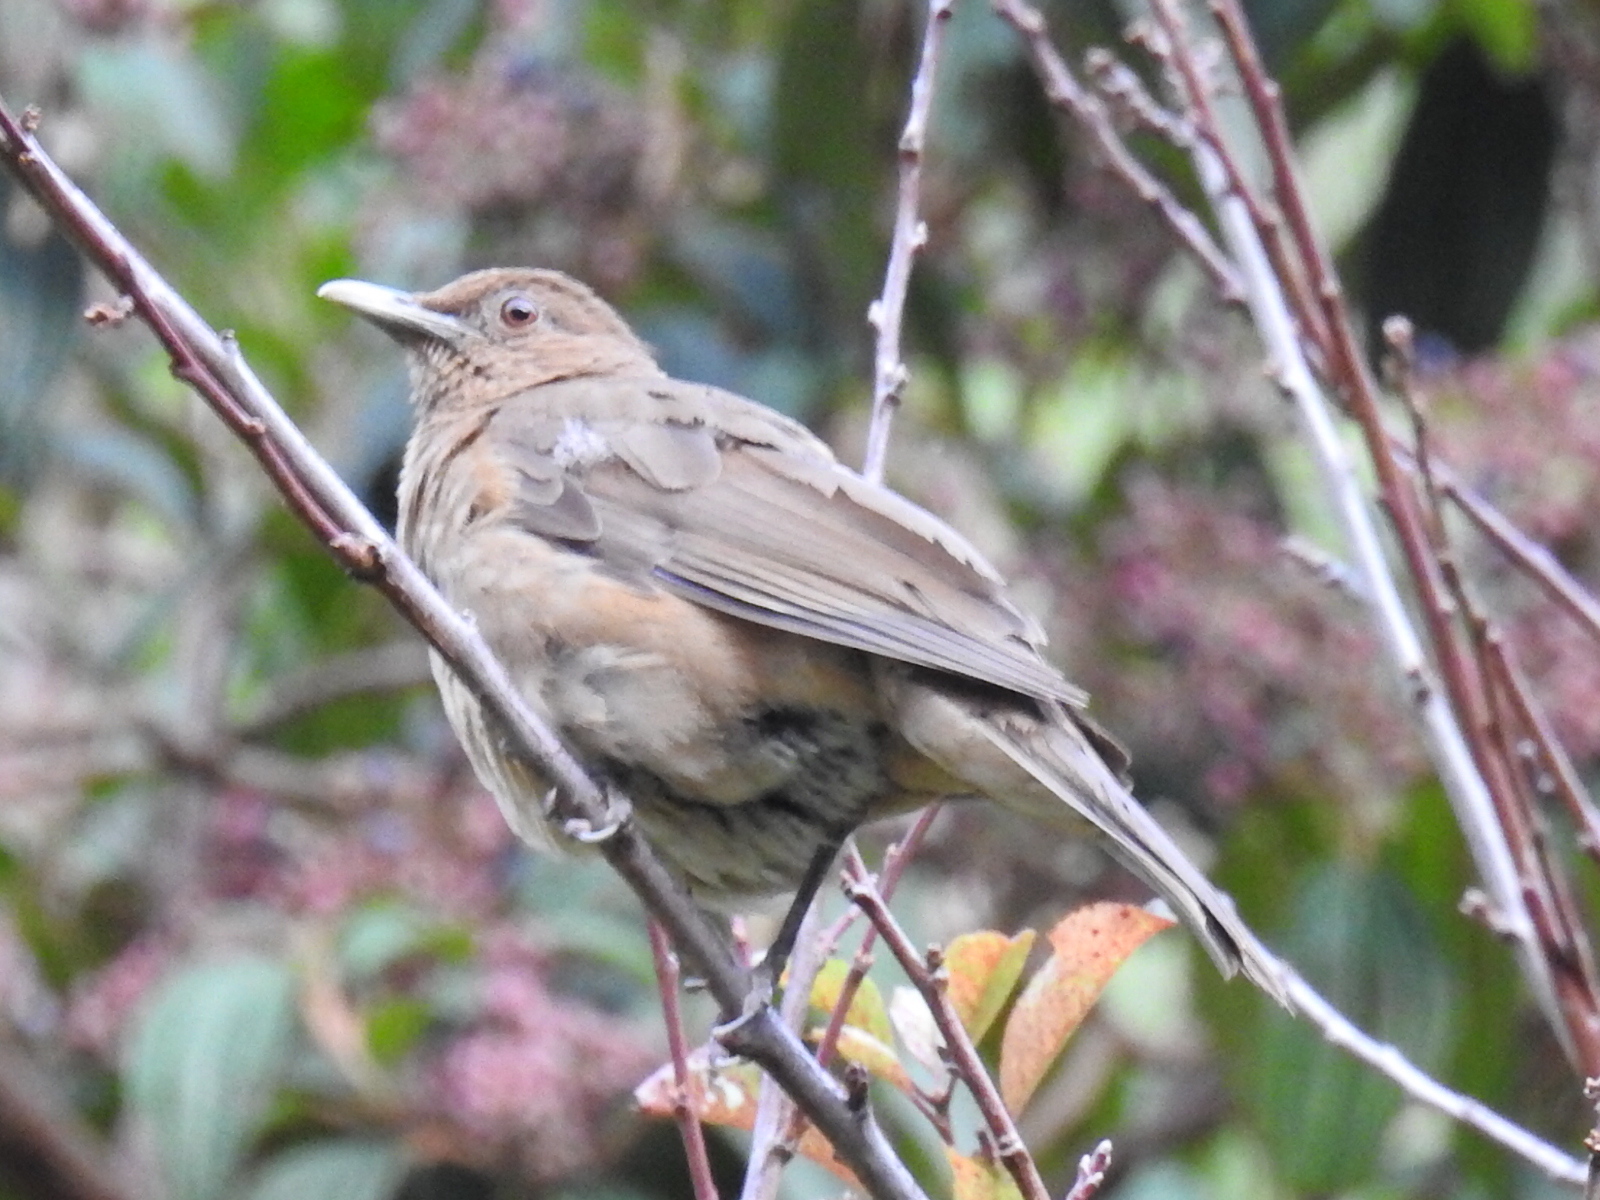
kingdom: Animalia
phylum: Chordata
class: Aves
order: Passeriformes
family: Turdidae
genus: Turdus
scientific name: Turdus grayi
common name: Clay-colored thrush
